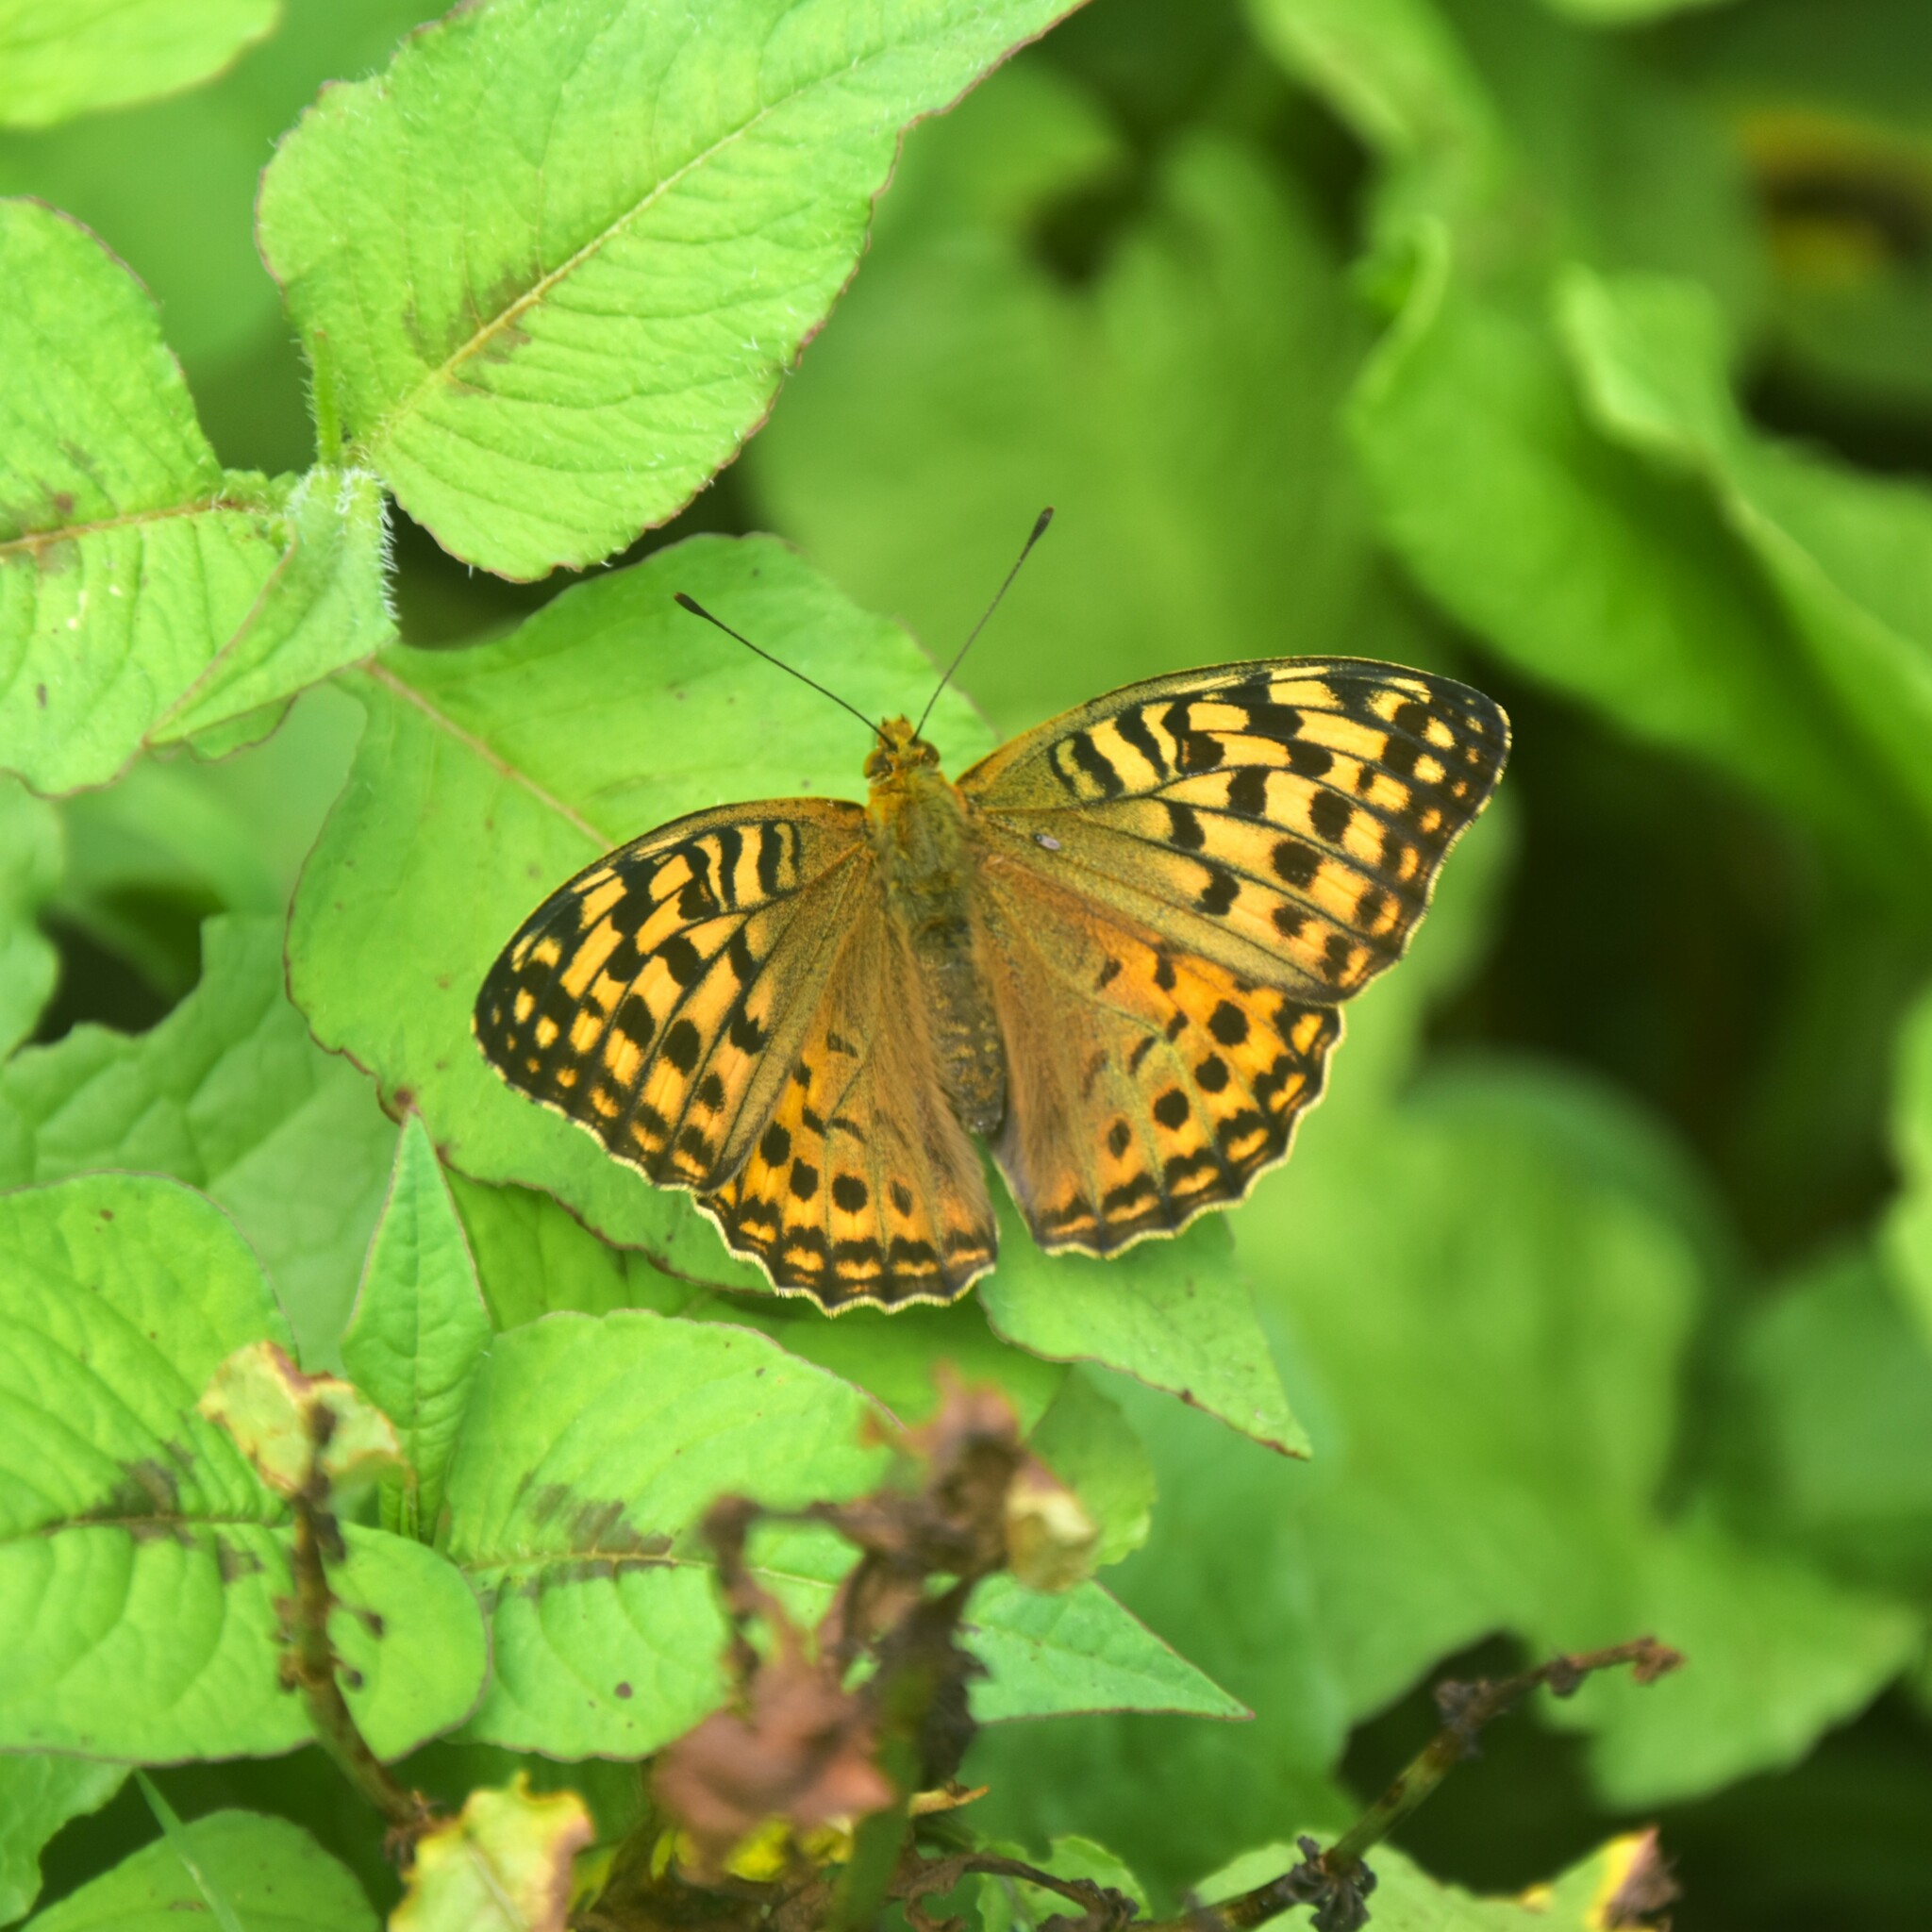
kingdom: Animalia
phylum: Arthropoda
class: Insecta
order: Lepidoptera
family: Nymphalidae
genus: Fabriciana
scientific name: Fabriciana kamala
